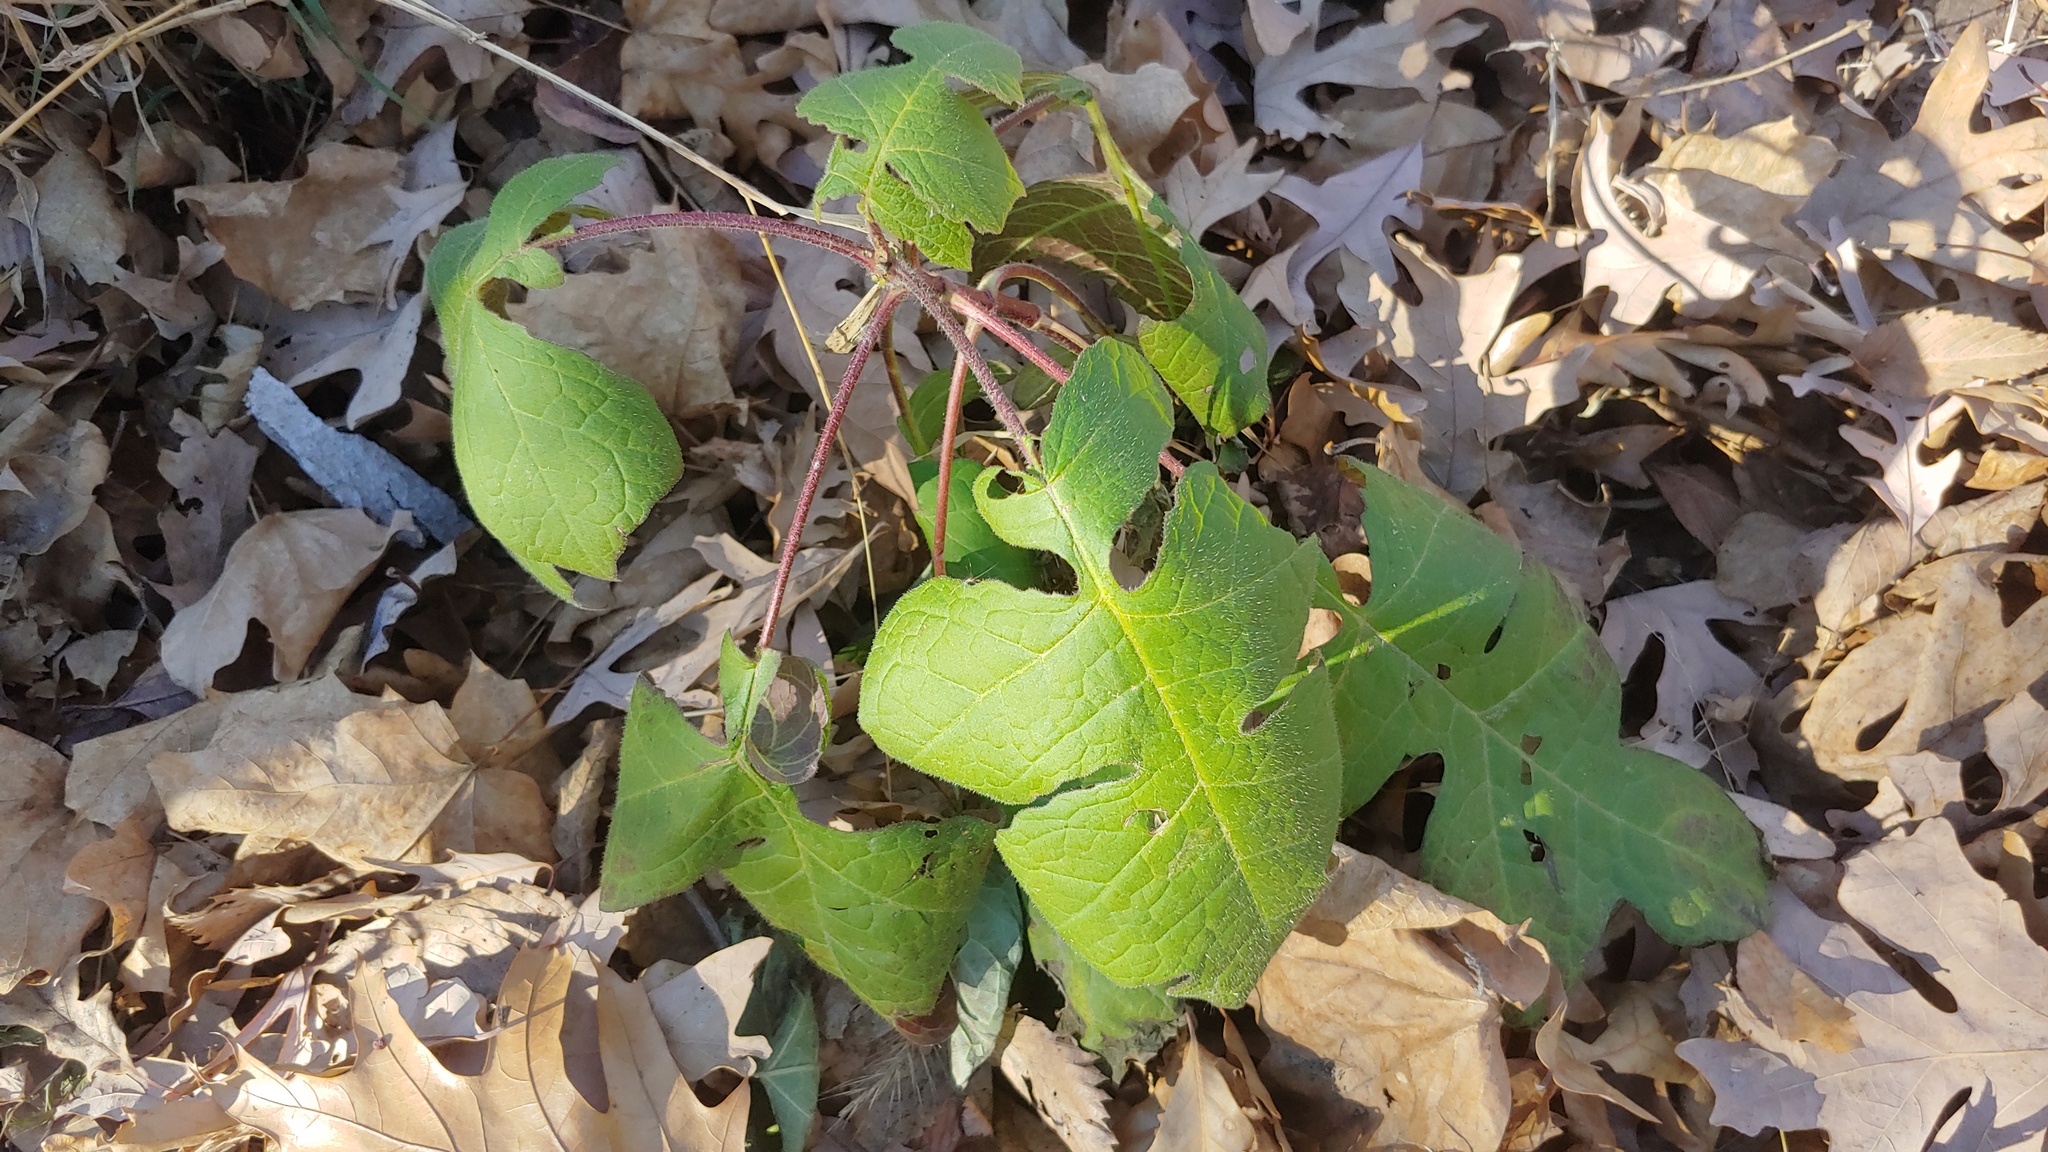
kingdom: Plantae
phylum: Tracheophyta
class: Magnoliopsida
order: Asterales
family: Asteraceae
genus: Polymnia
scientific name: Polymnia canadensis
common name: Pale-flowered leafcup
